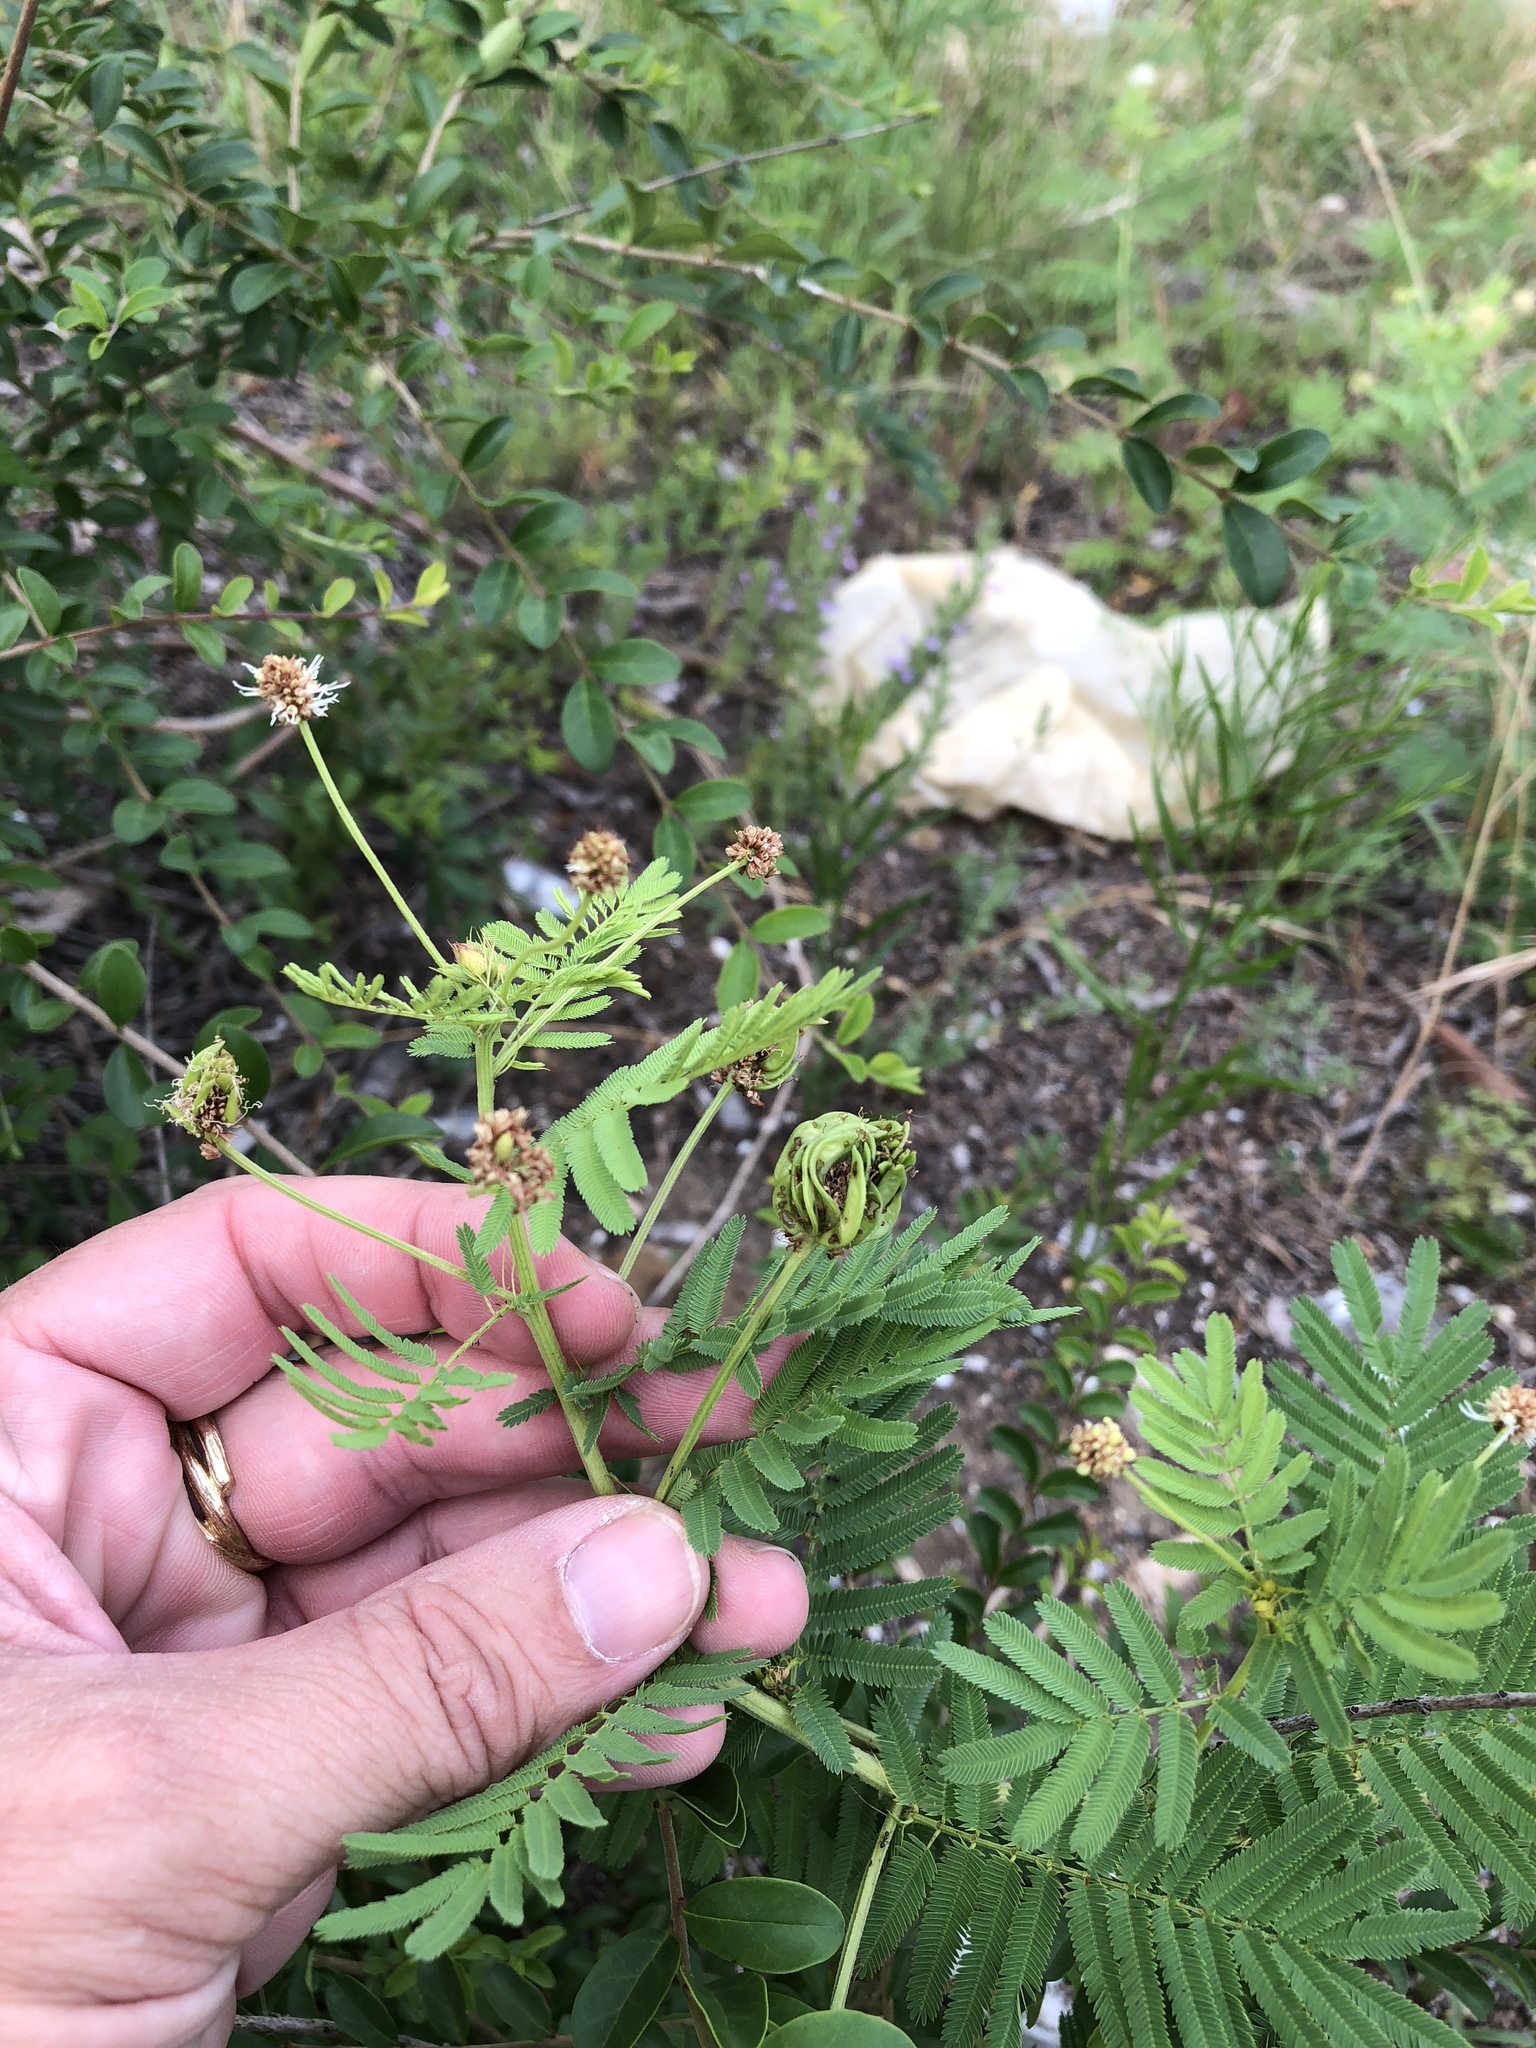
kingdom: Plantae
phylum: Tracheophyta
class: Magnoliopsida
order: Fabales
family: Fabaceae
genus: Desmanthus
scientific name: Desmanthus illinoensis
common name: Illinois bundle-flower
